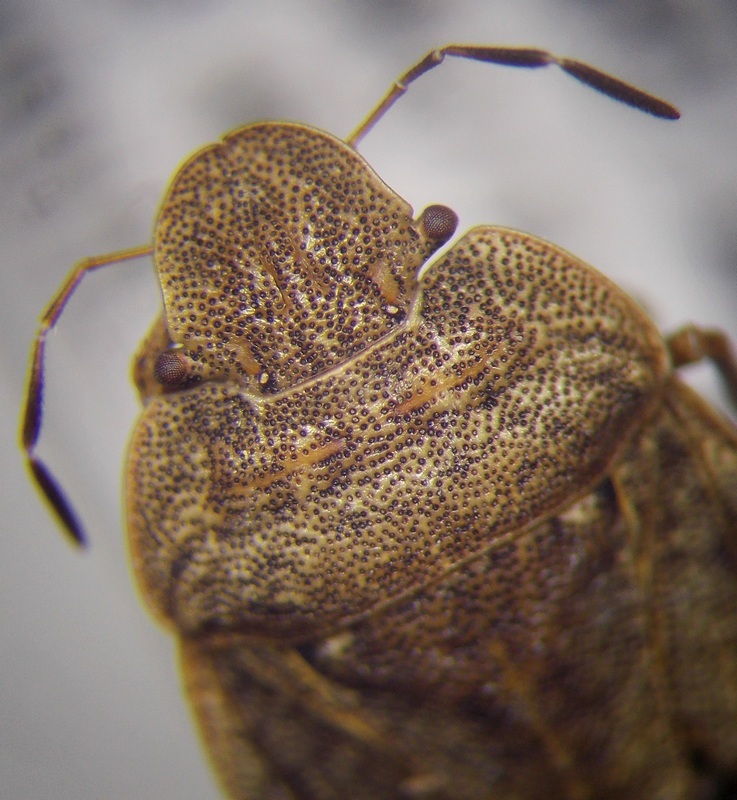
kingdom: Animalia
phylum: Arthropoda
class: Insecta
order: Hemiptera
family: Pentatomidae
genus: Sciocoris
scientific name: Sciocoris homalonotus
